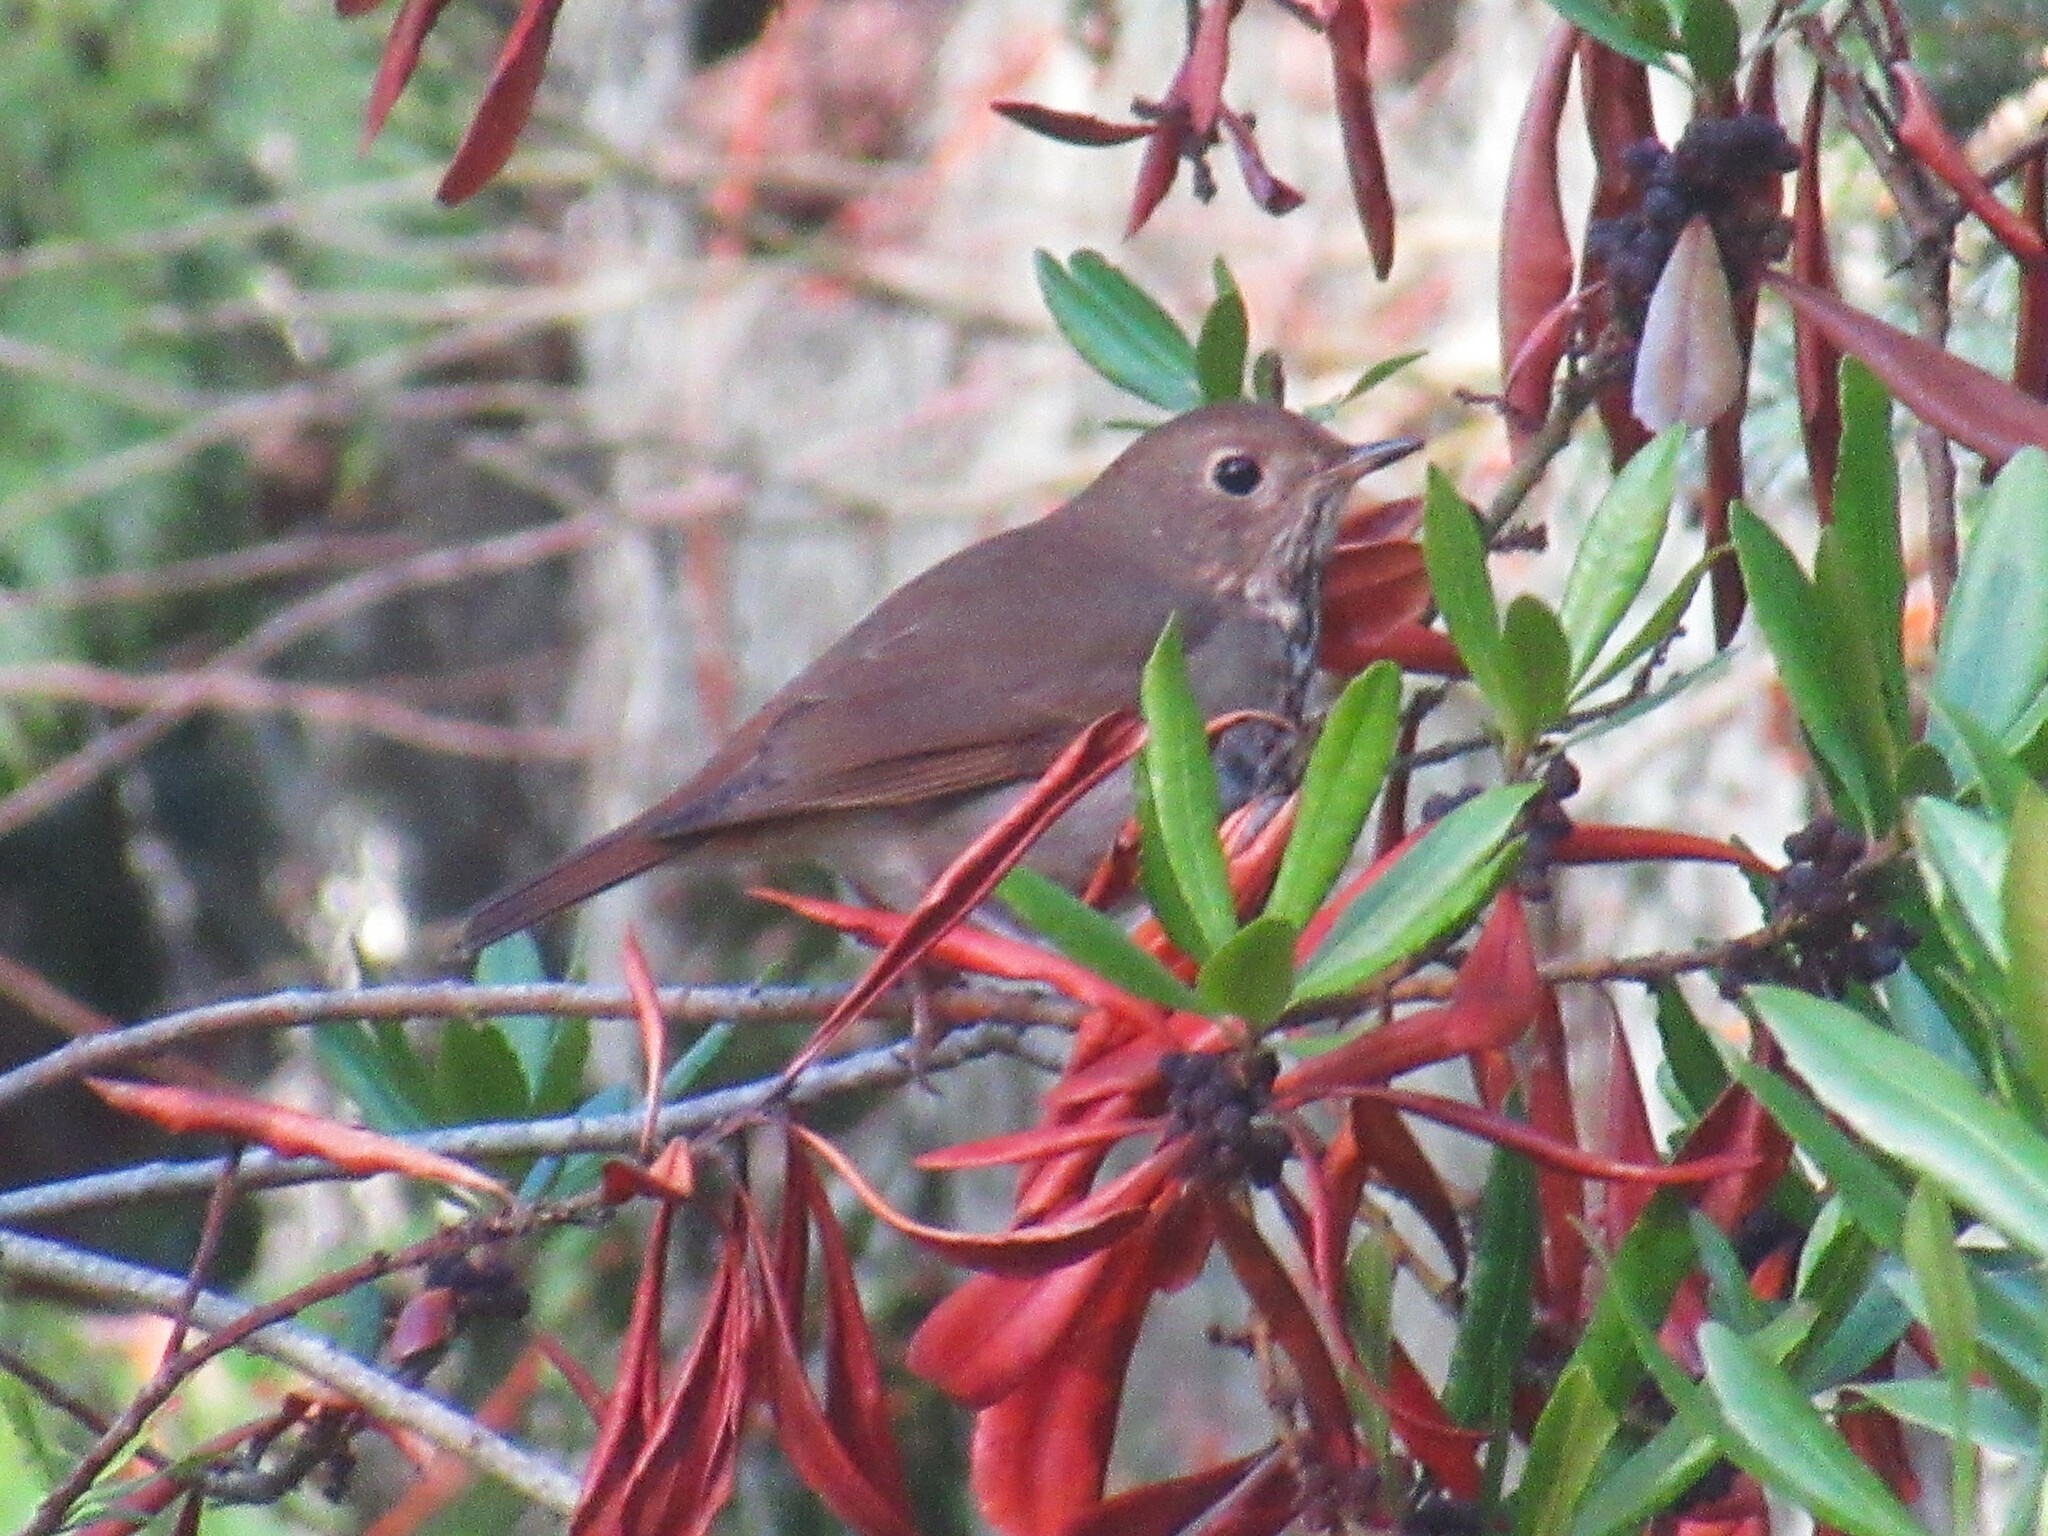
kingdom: Animalia
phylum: Chordata
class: Aves
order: Passeriformes
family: Turdidae
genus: Catharus
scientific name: Catharus guttatus
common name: Hermit thrush
